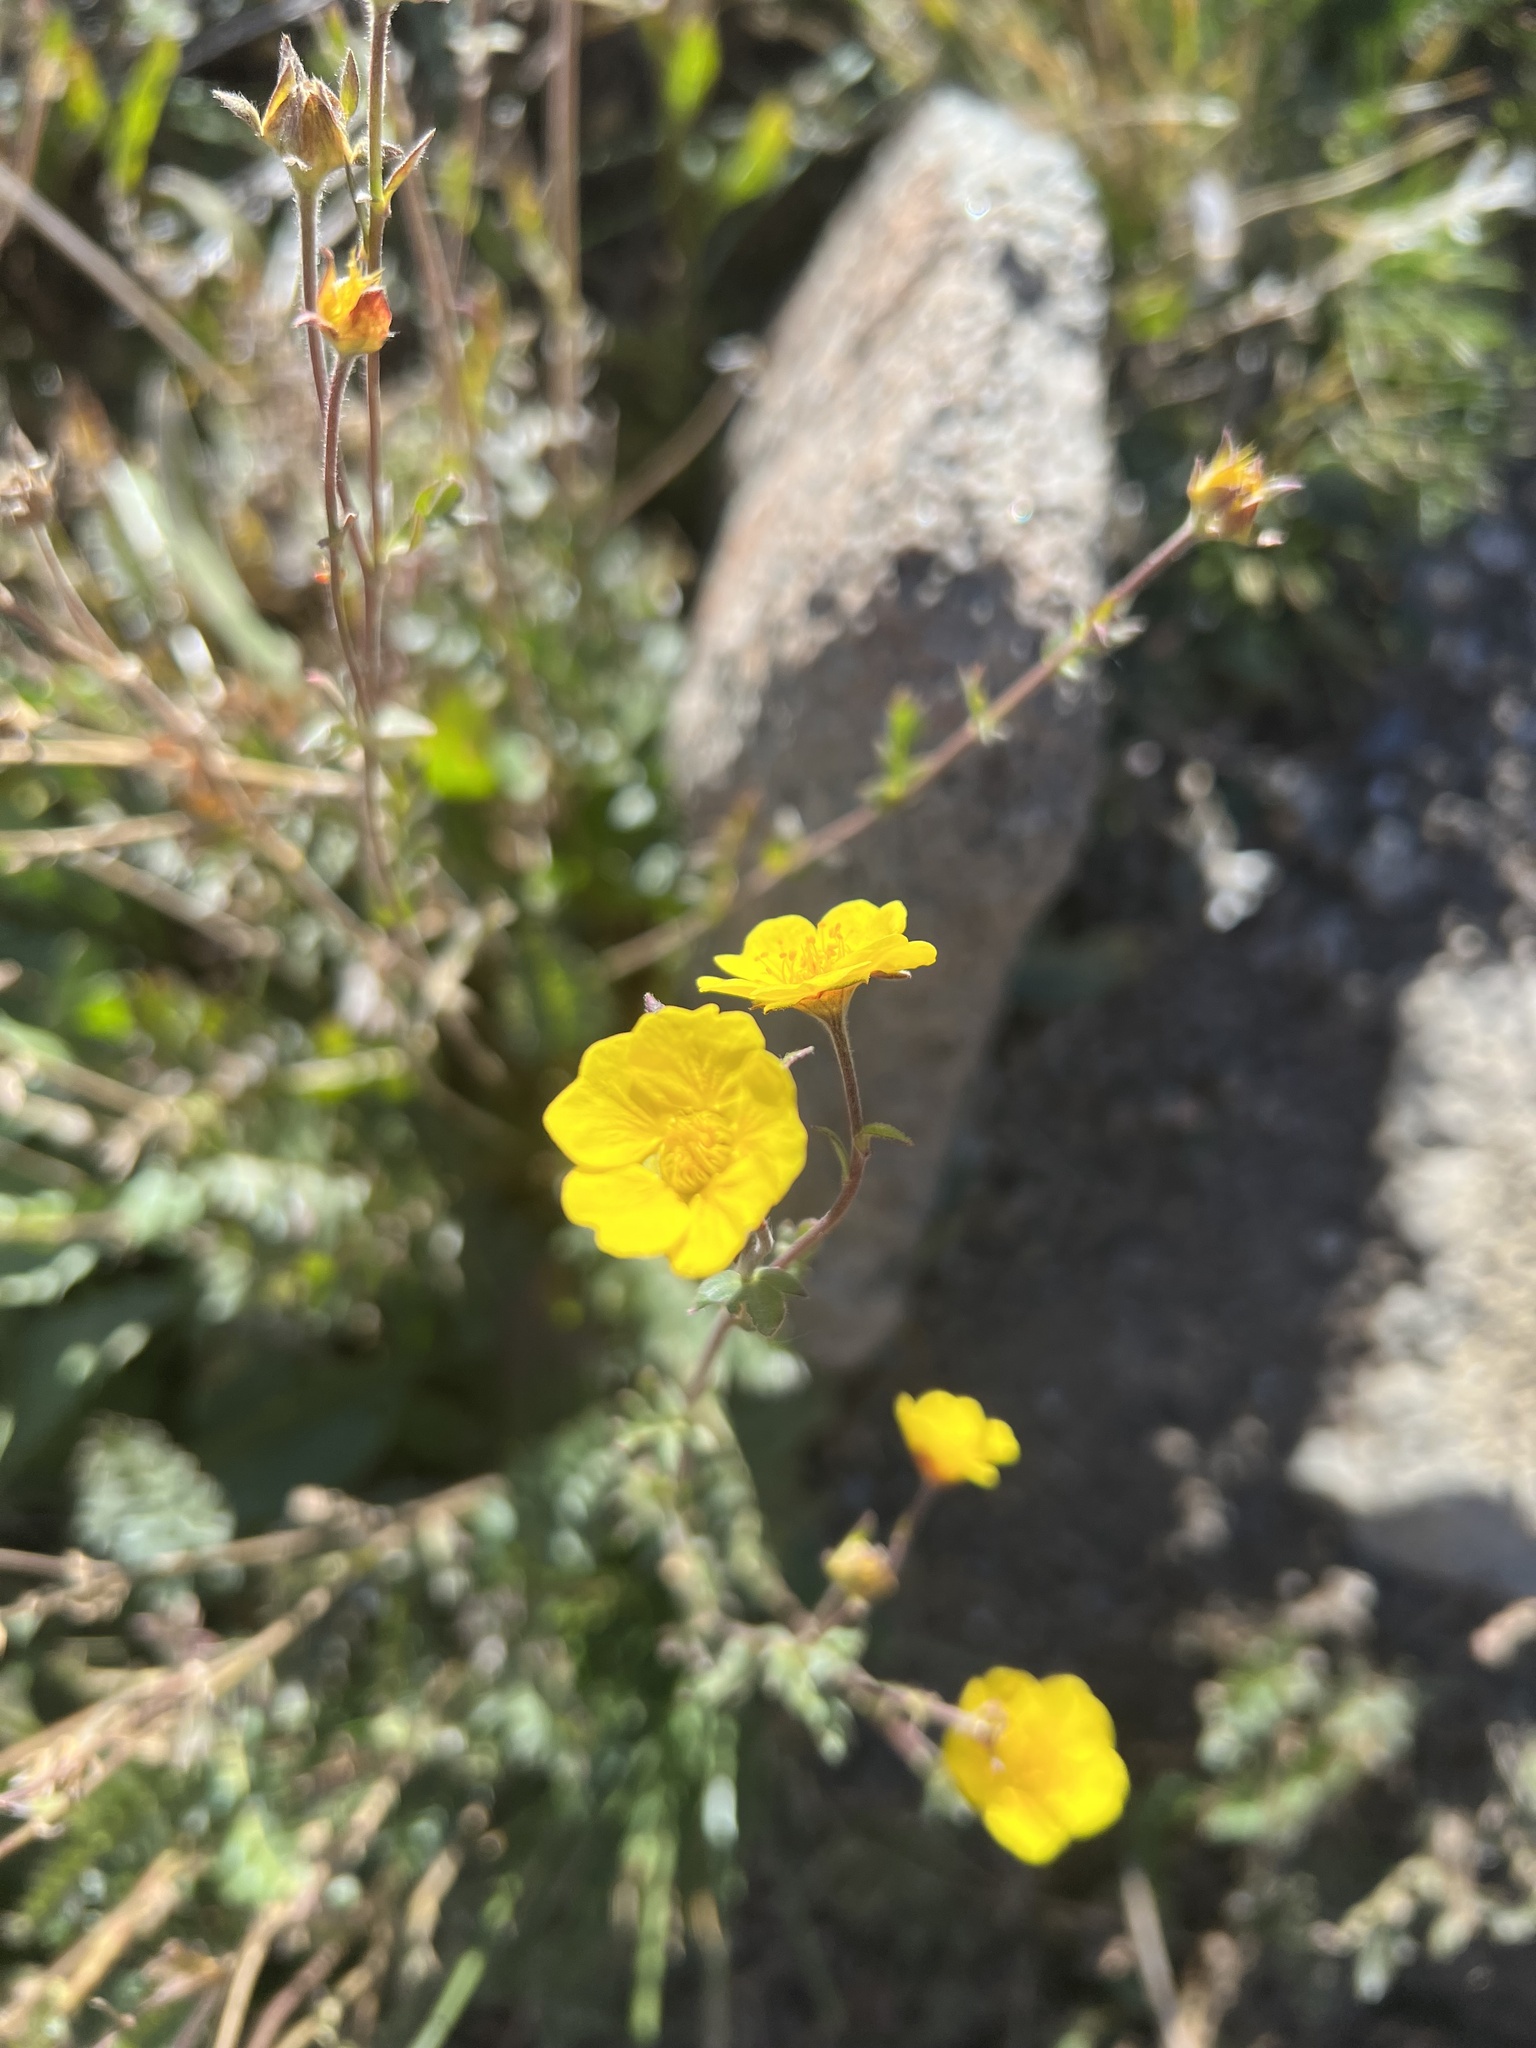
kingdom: Plantae
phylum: Tracheophyta
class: Magnoliopsida
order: Rosales
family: Rosaceae
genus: Geum
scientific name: Geum rossii
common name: Alpine avens
